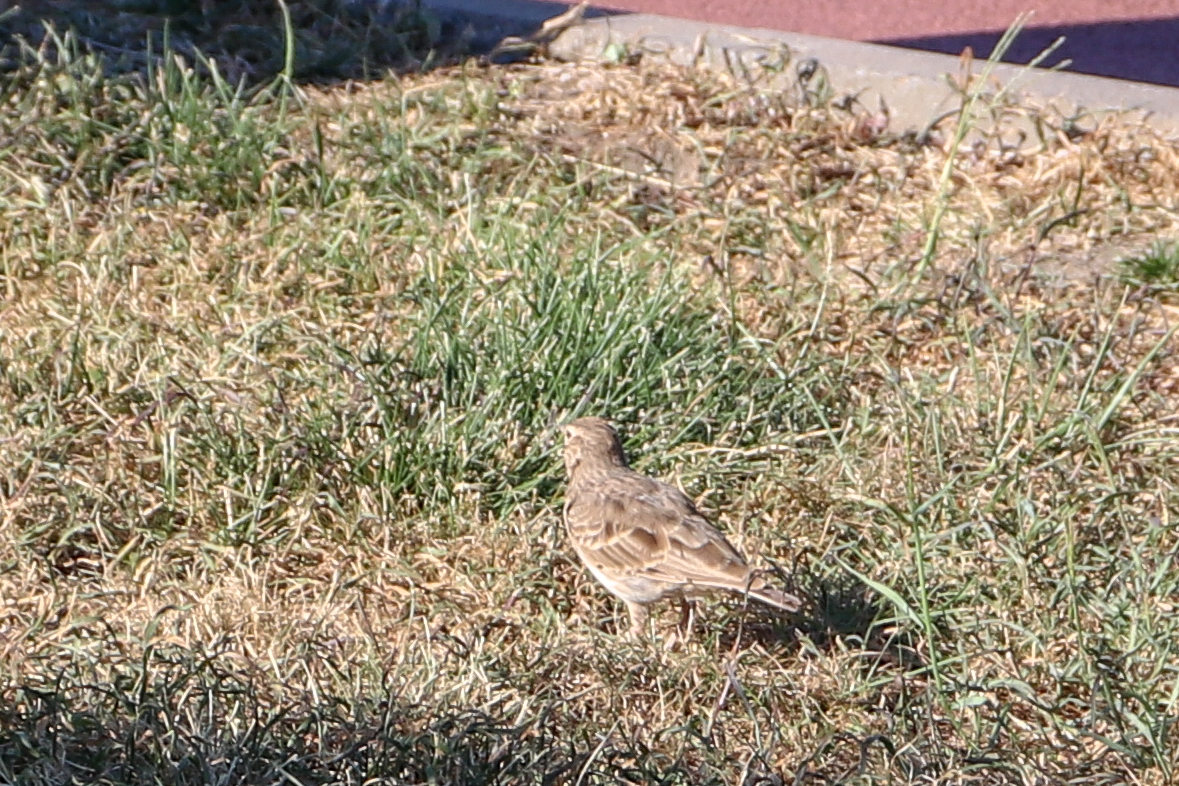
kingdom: Animalia
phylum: Chordata
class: Aves
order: Passeriformes
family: Alaudidae
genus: Galerida
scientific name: Galerida cristata
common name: Crested lark
